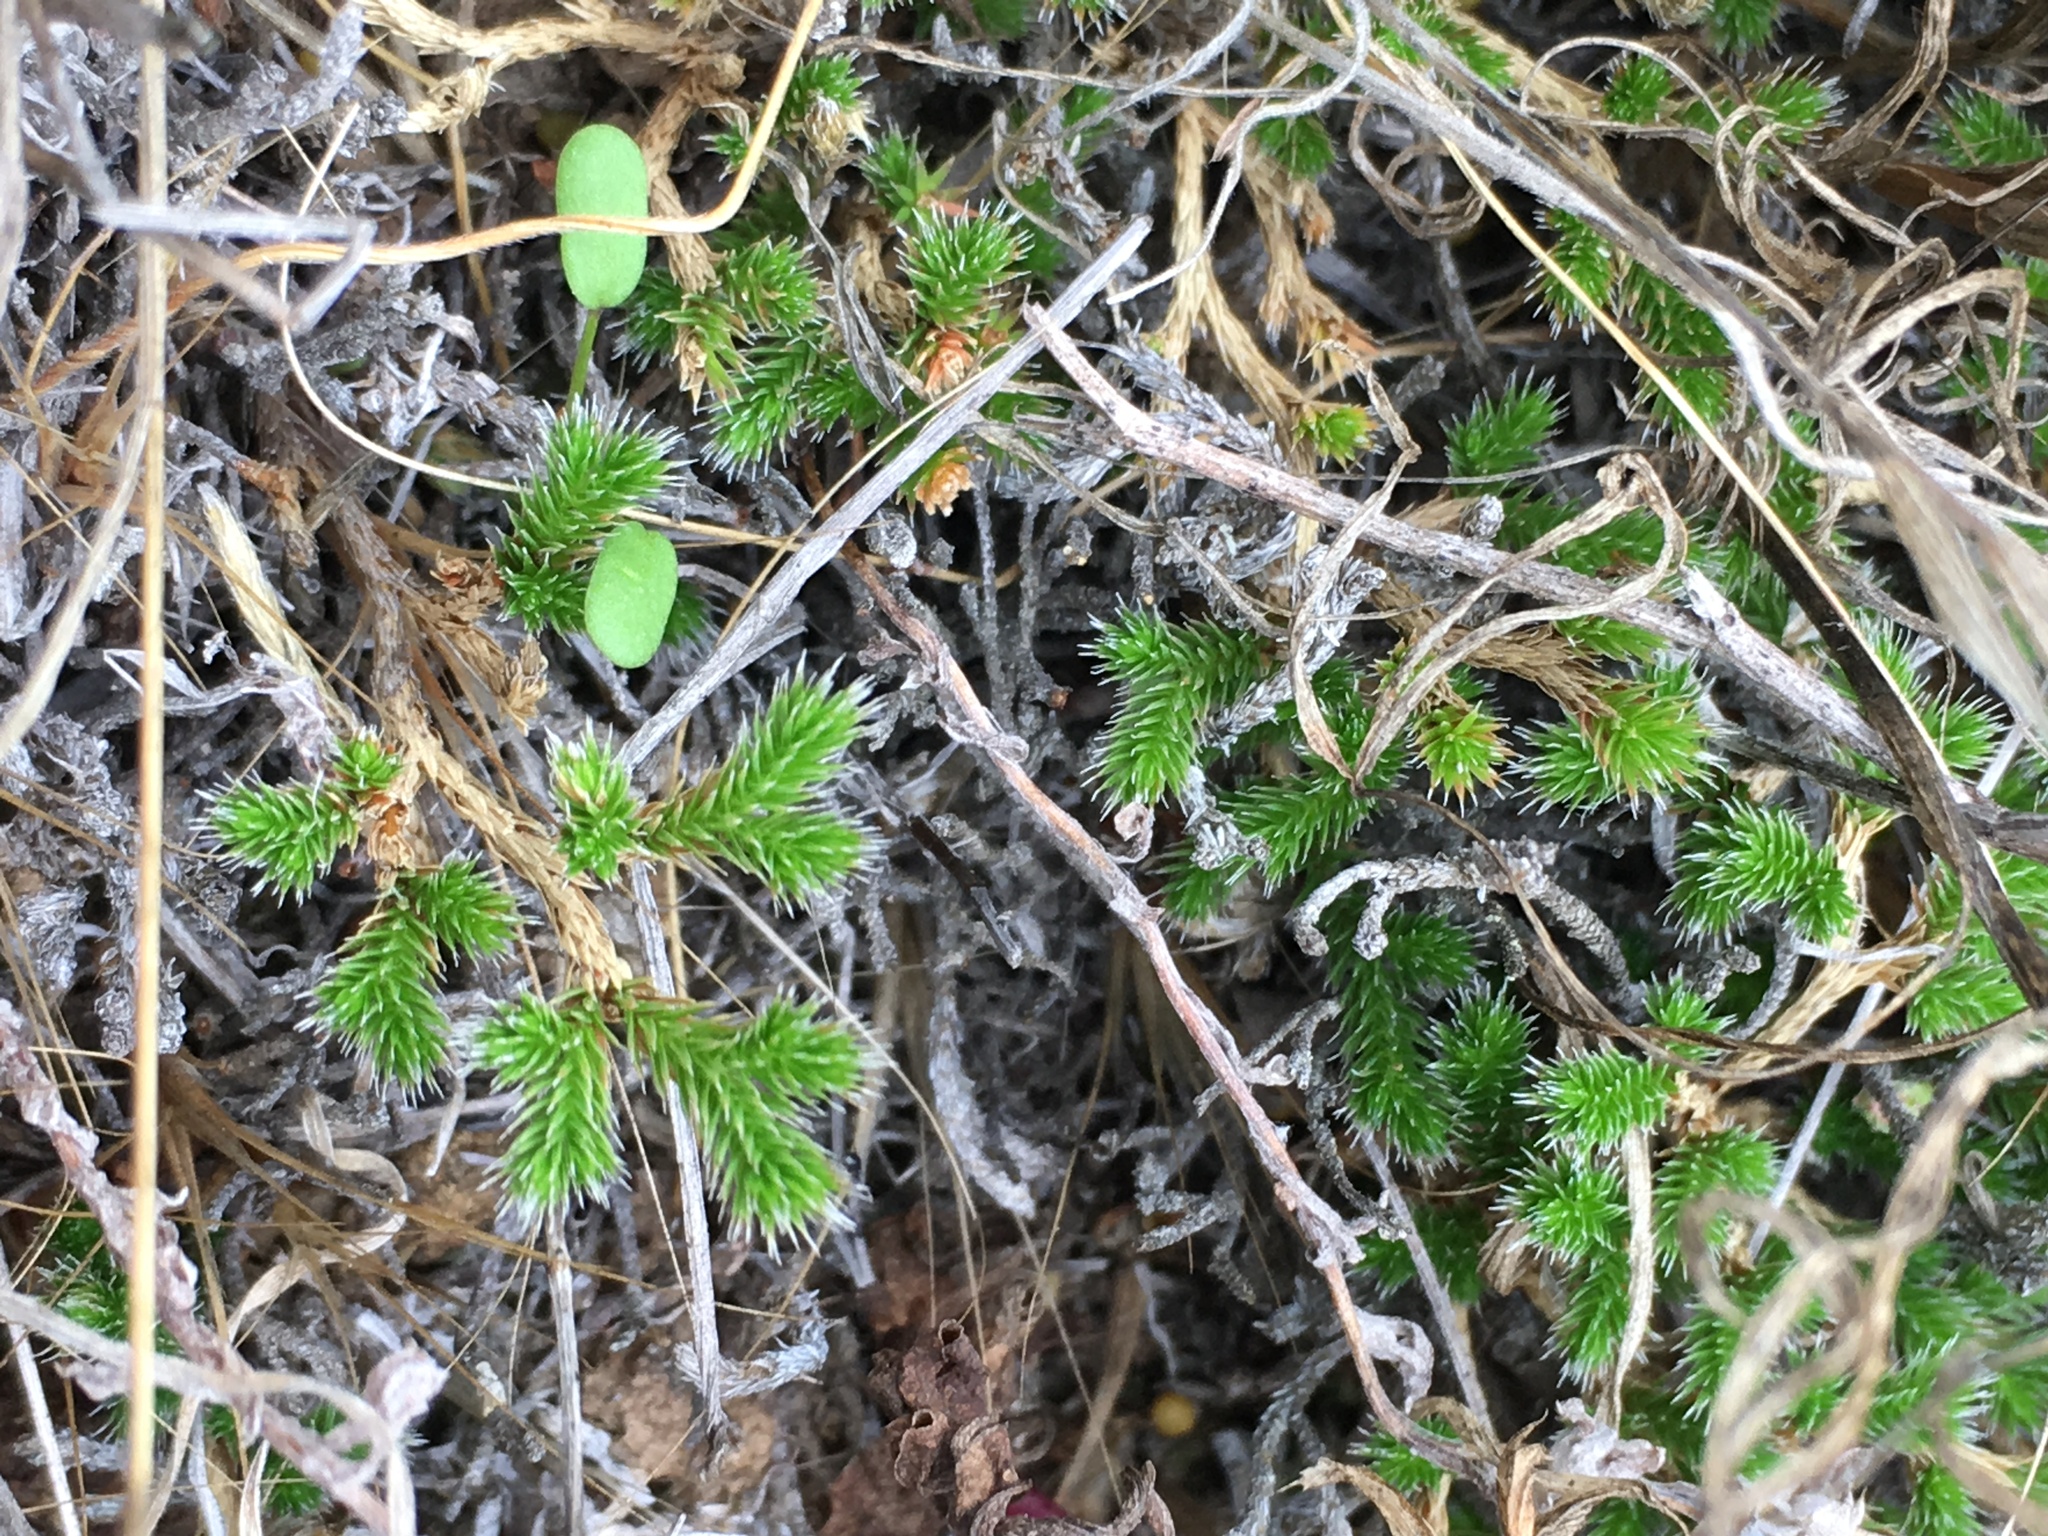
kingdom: Plantae
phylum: Tracheophyta
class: Lycopodiopsida
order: Selaginellales
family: Selaginellaceae
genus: Selaginella
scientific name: Selaginella bigelovii
